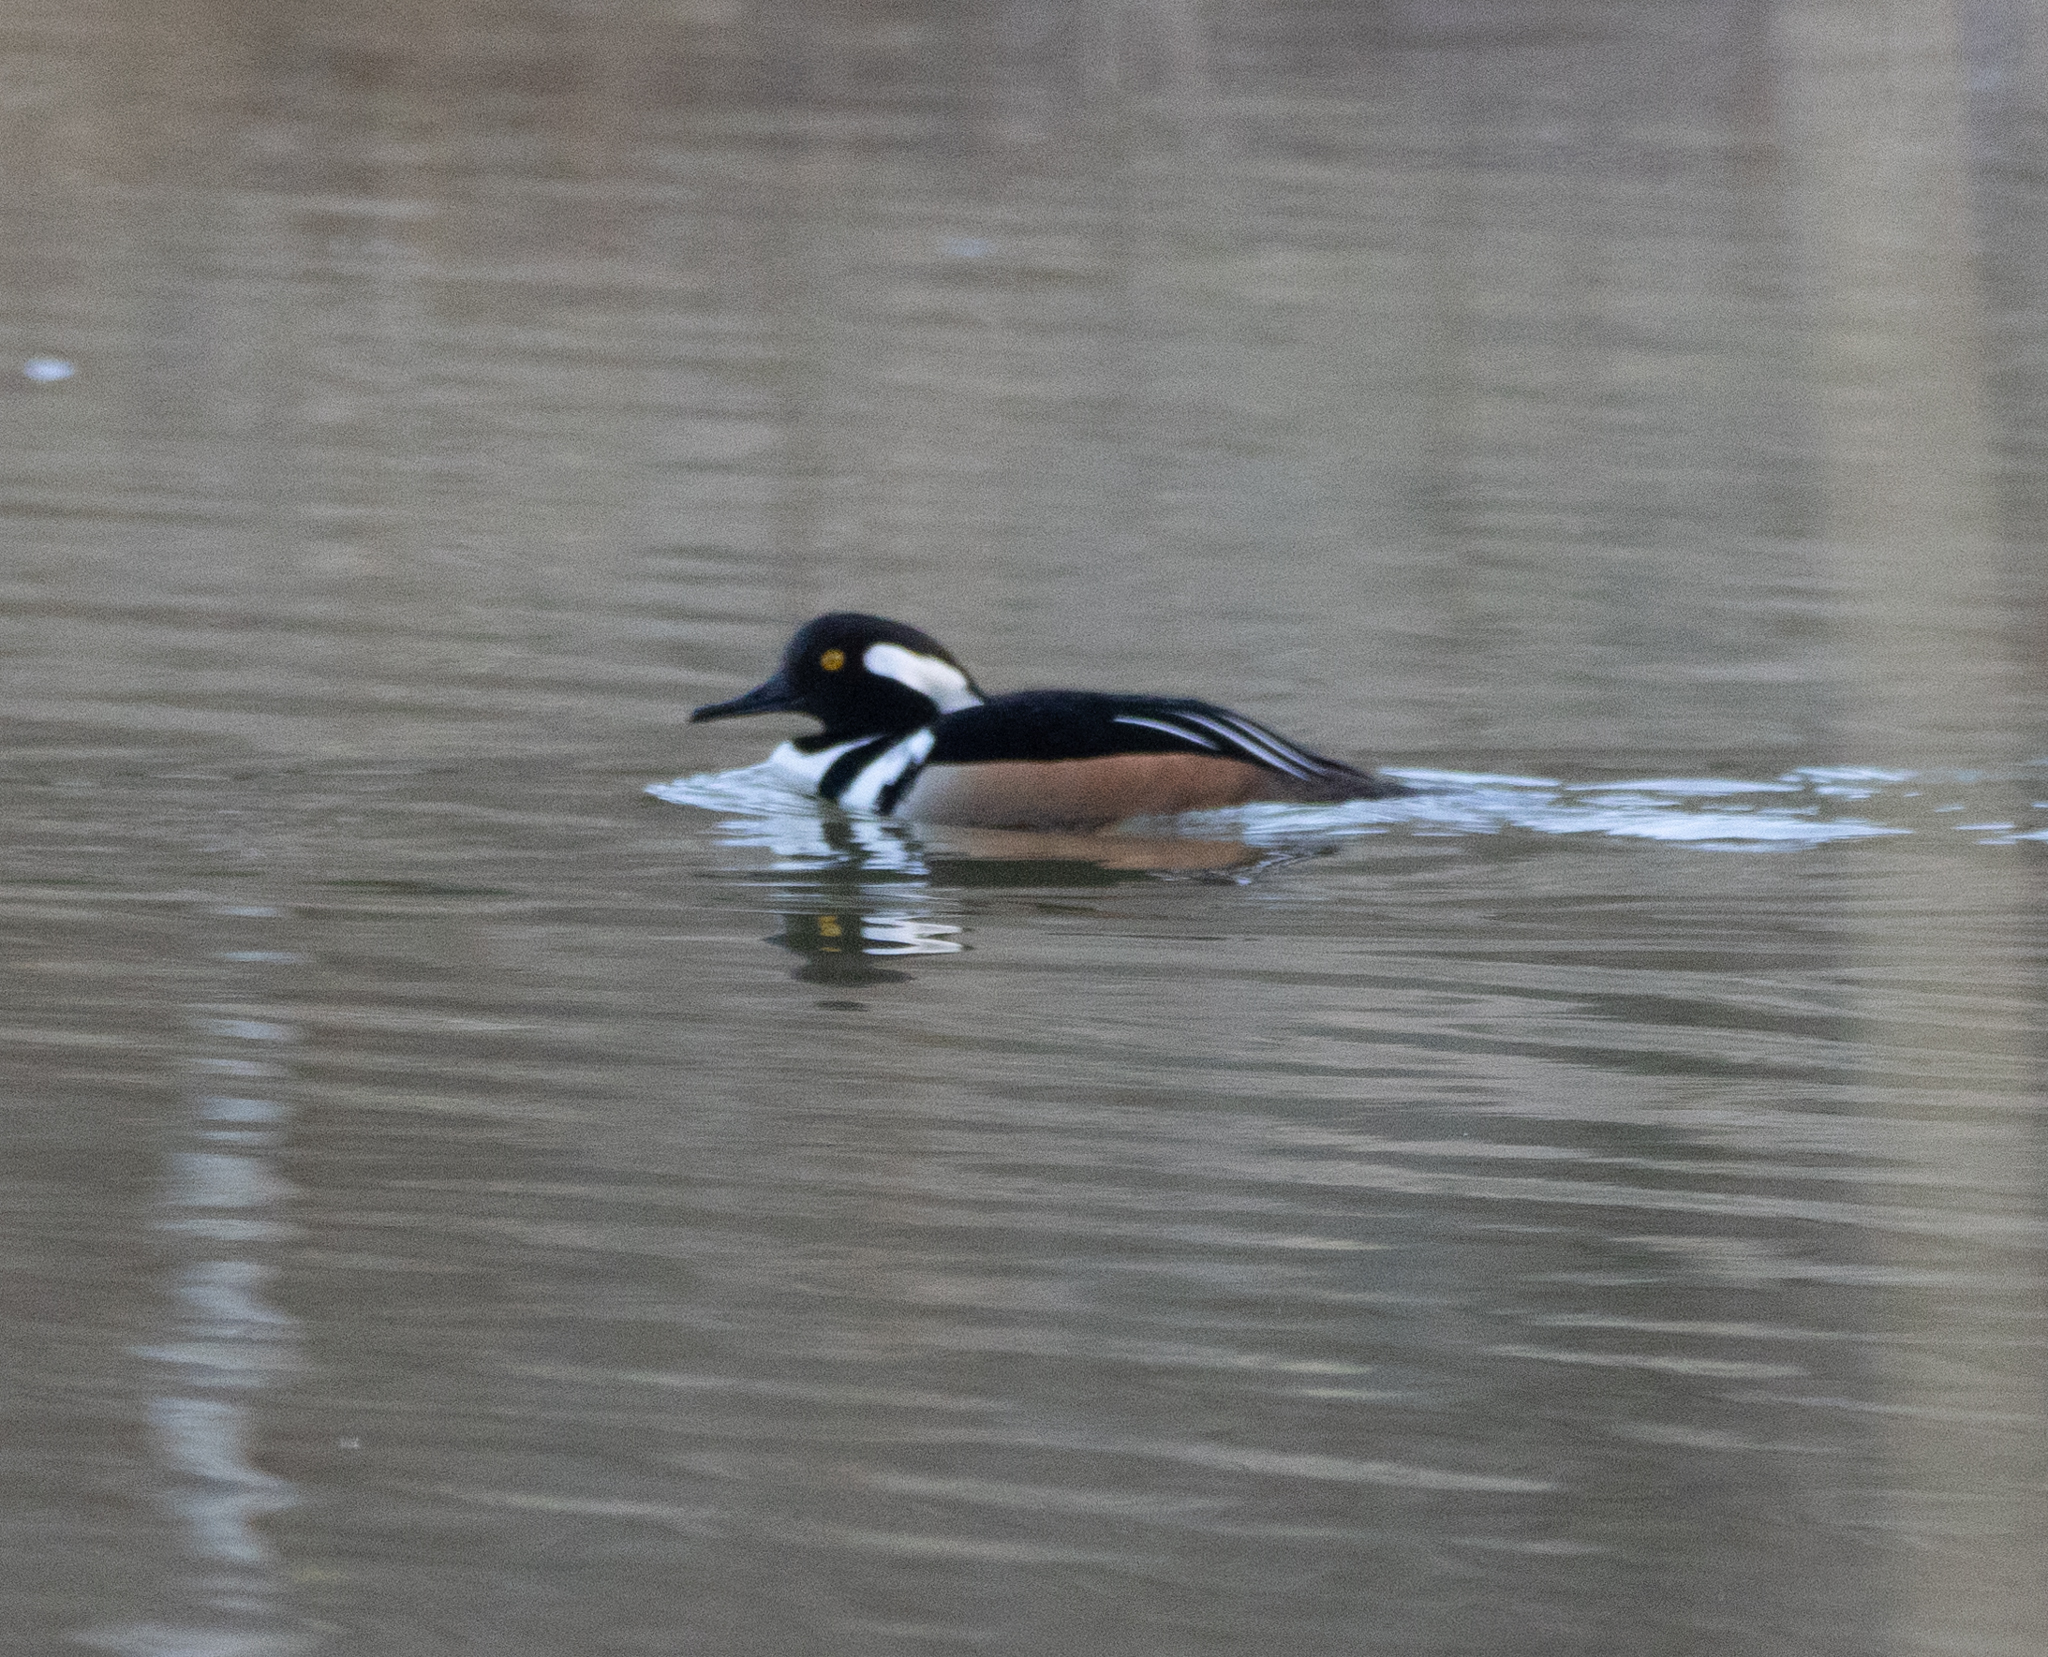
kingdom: Animalia
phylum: Chordata
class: Aves
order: Anseriformes
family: Anatidae
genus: Lophodytes
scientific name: Lophodytes cucullatus
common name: Hooded merganser
